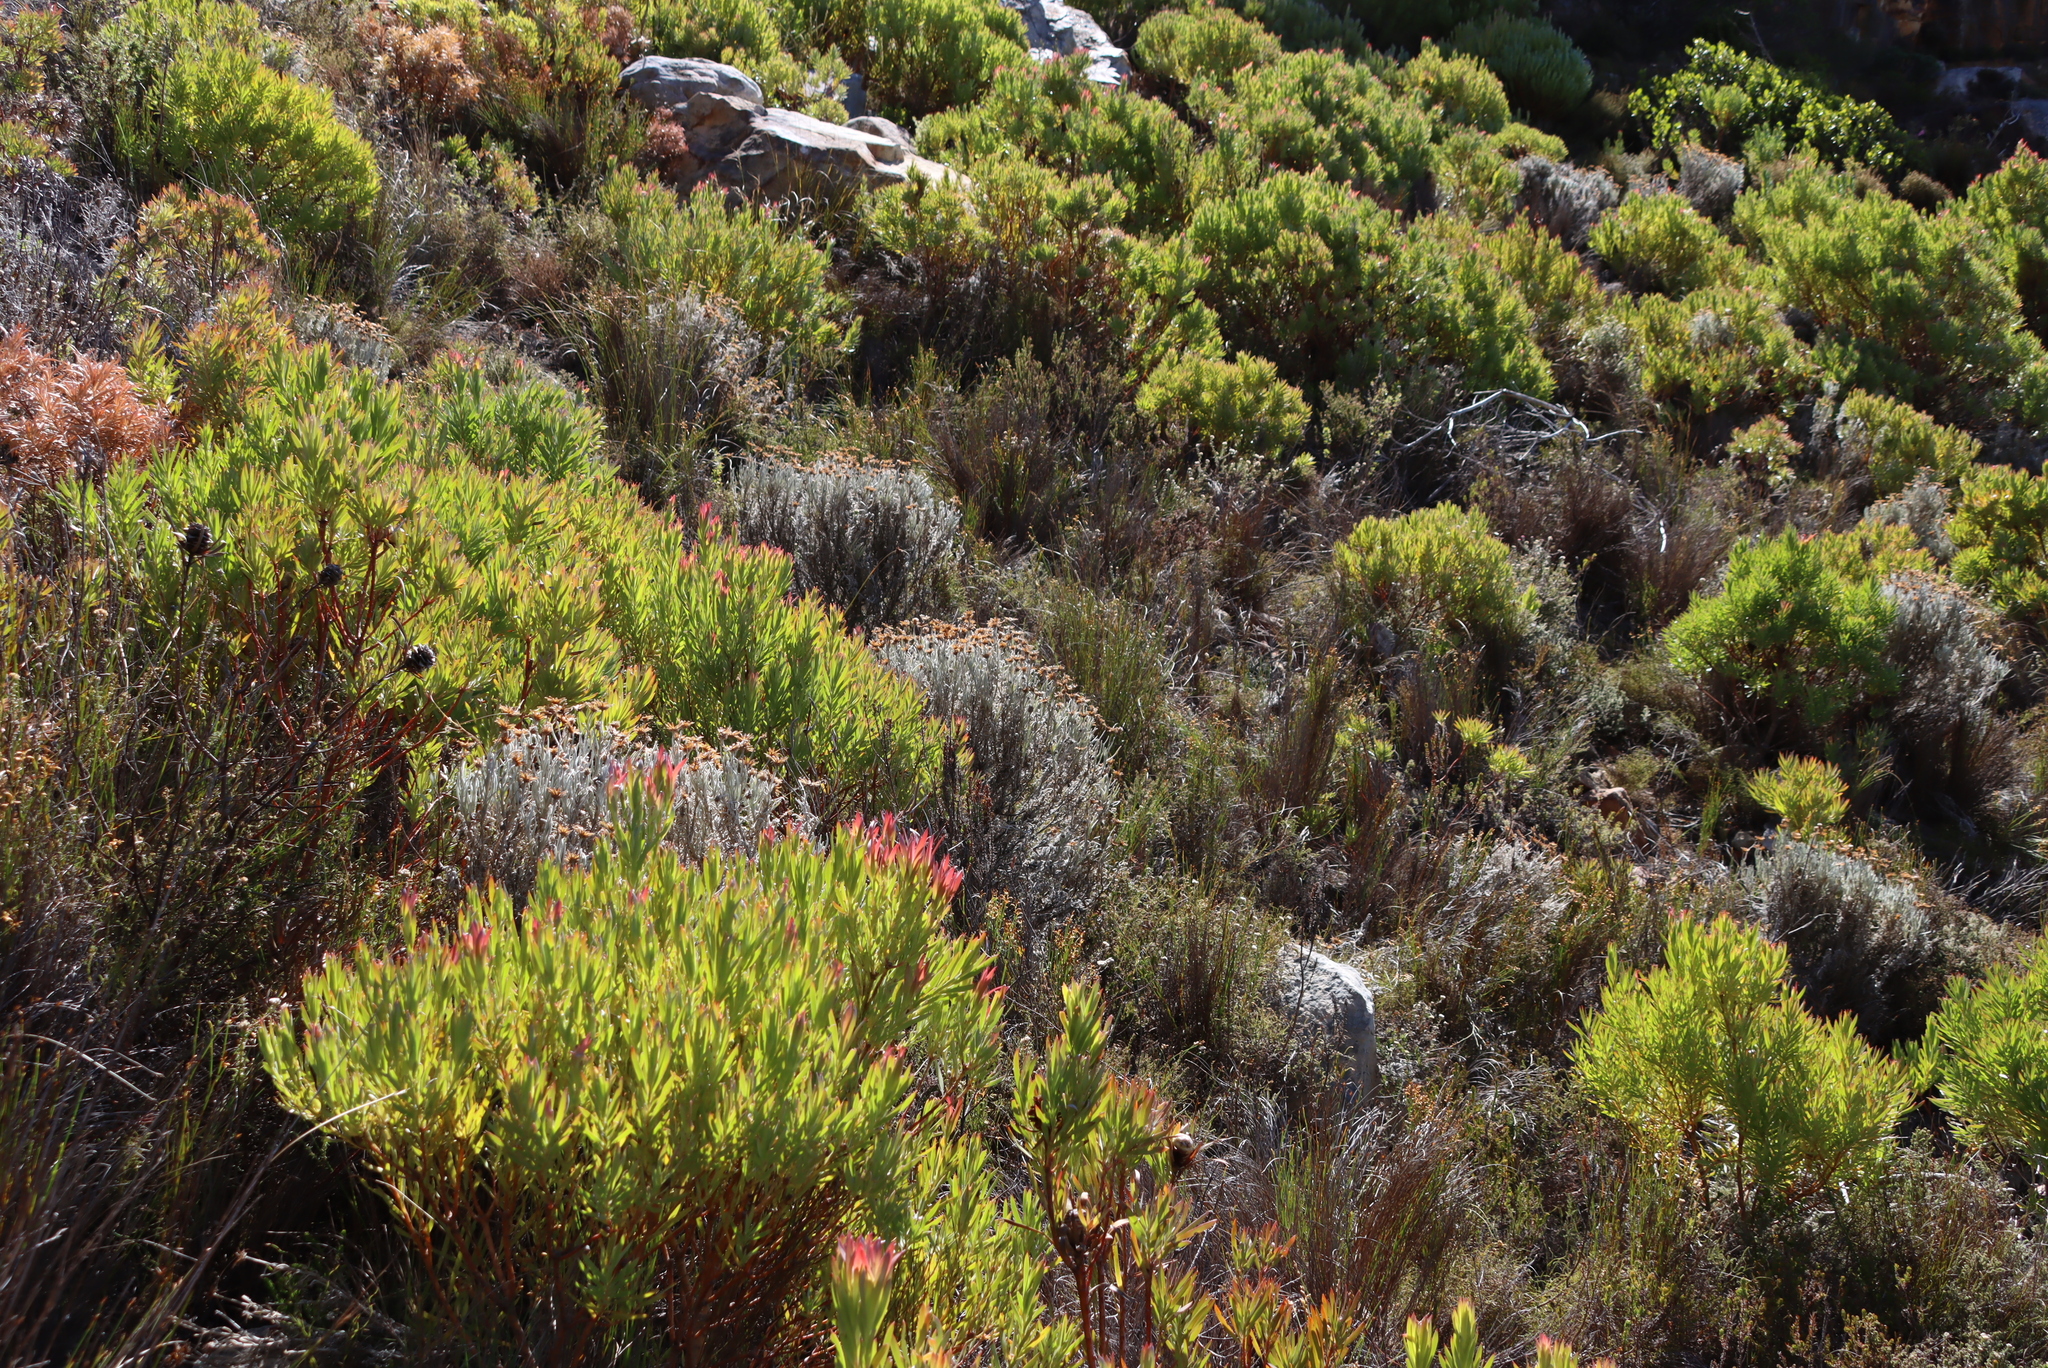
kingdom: Plantae
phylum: Tracheophyta
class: Magnoliopsida
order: Asterales
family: Asteraceae
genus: Syncarpha
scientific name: Syncarpha gnaphaloides
